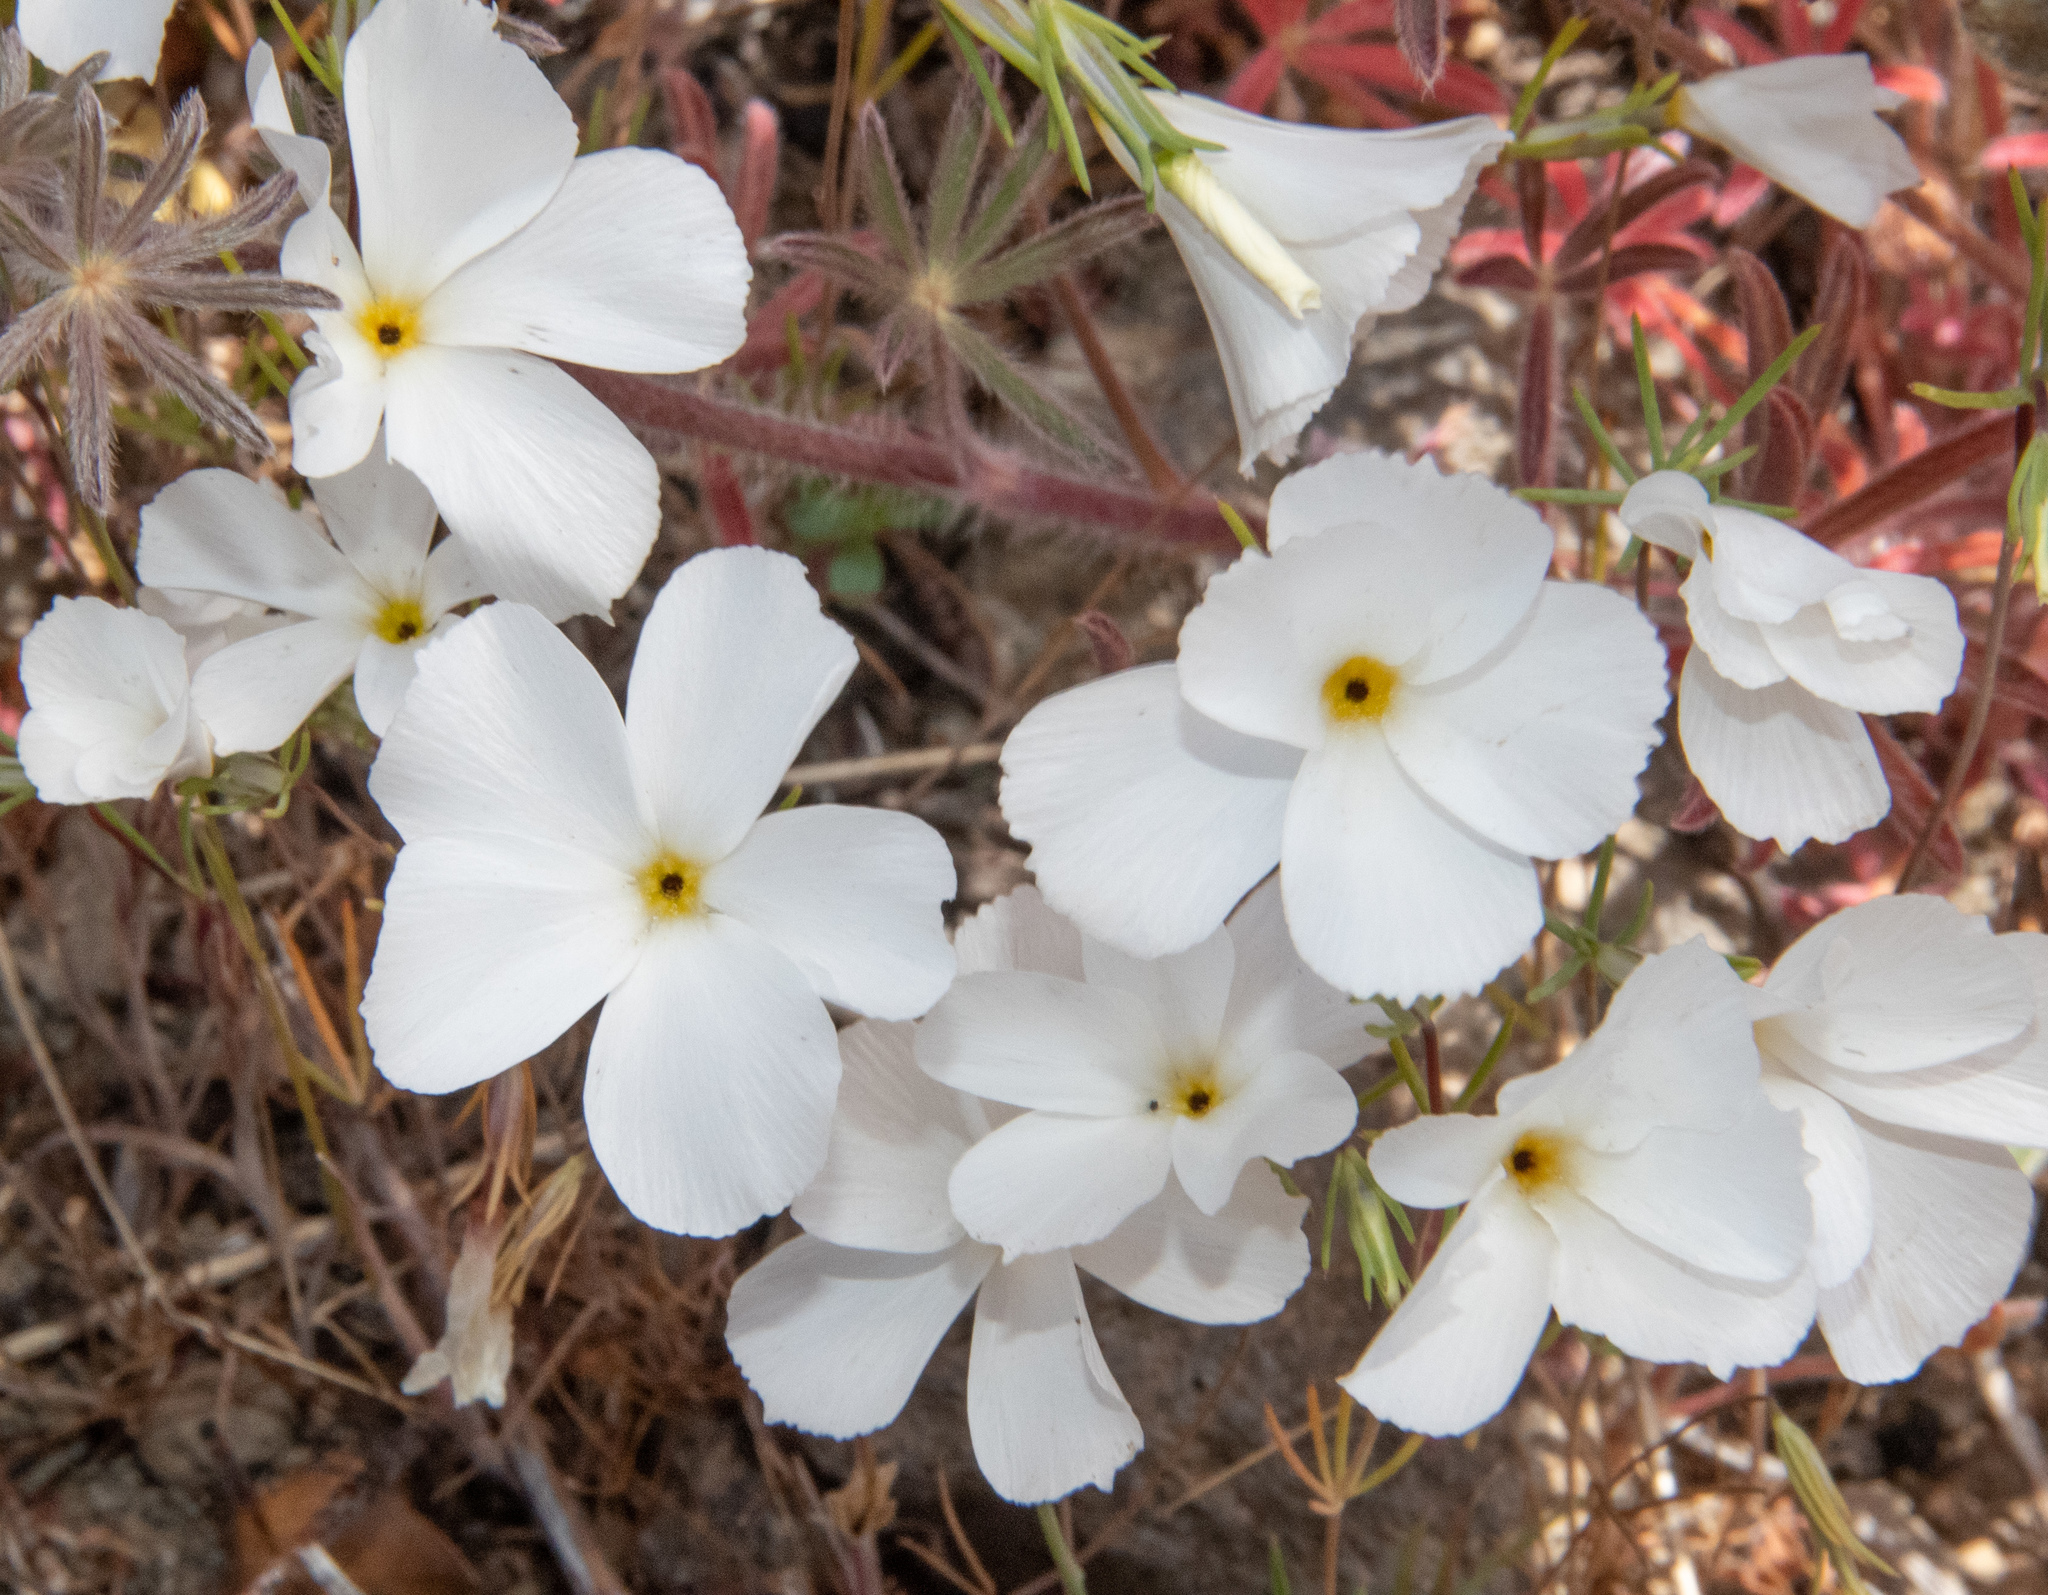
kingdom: Plantae
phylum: Tracheophyta
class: Magnoliopsida
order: Ericales
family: Polemoniaceae
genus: Linanthus
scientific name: Linanthus dichotomus
